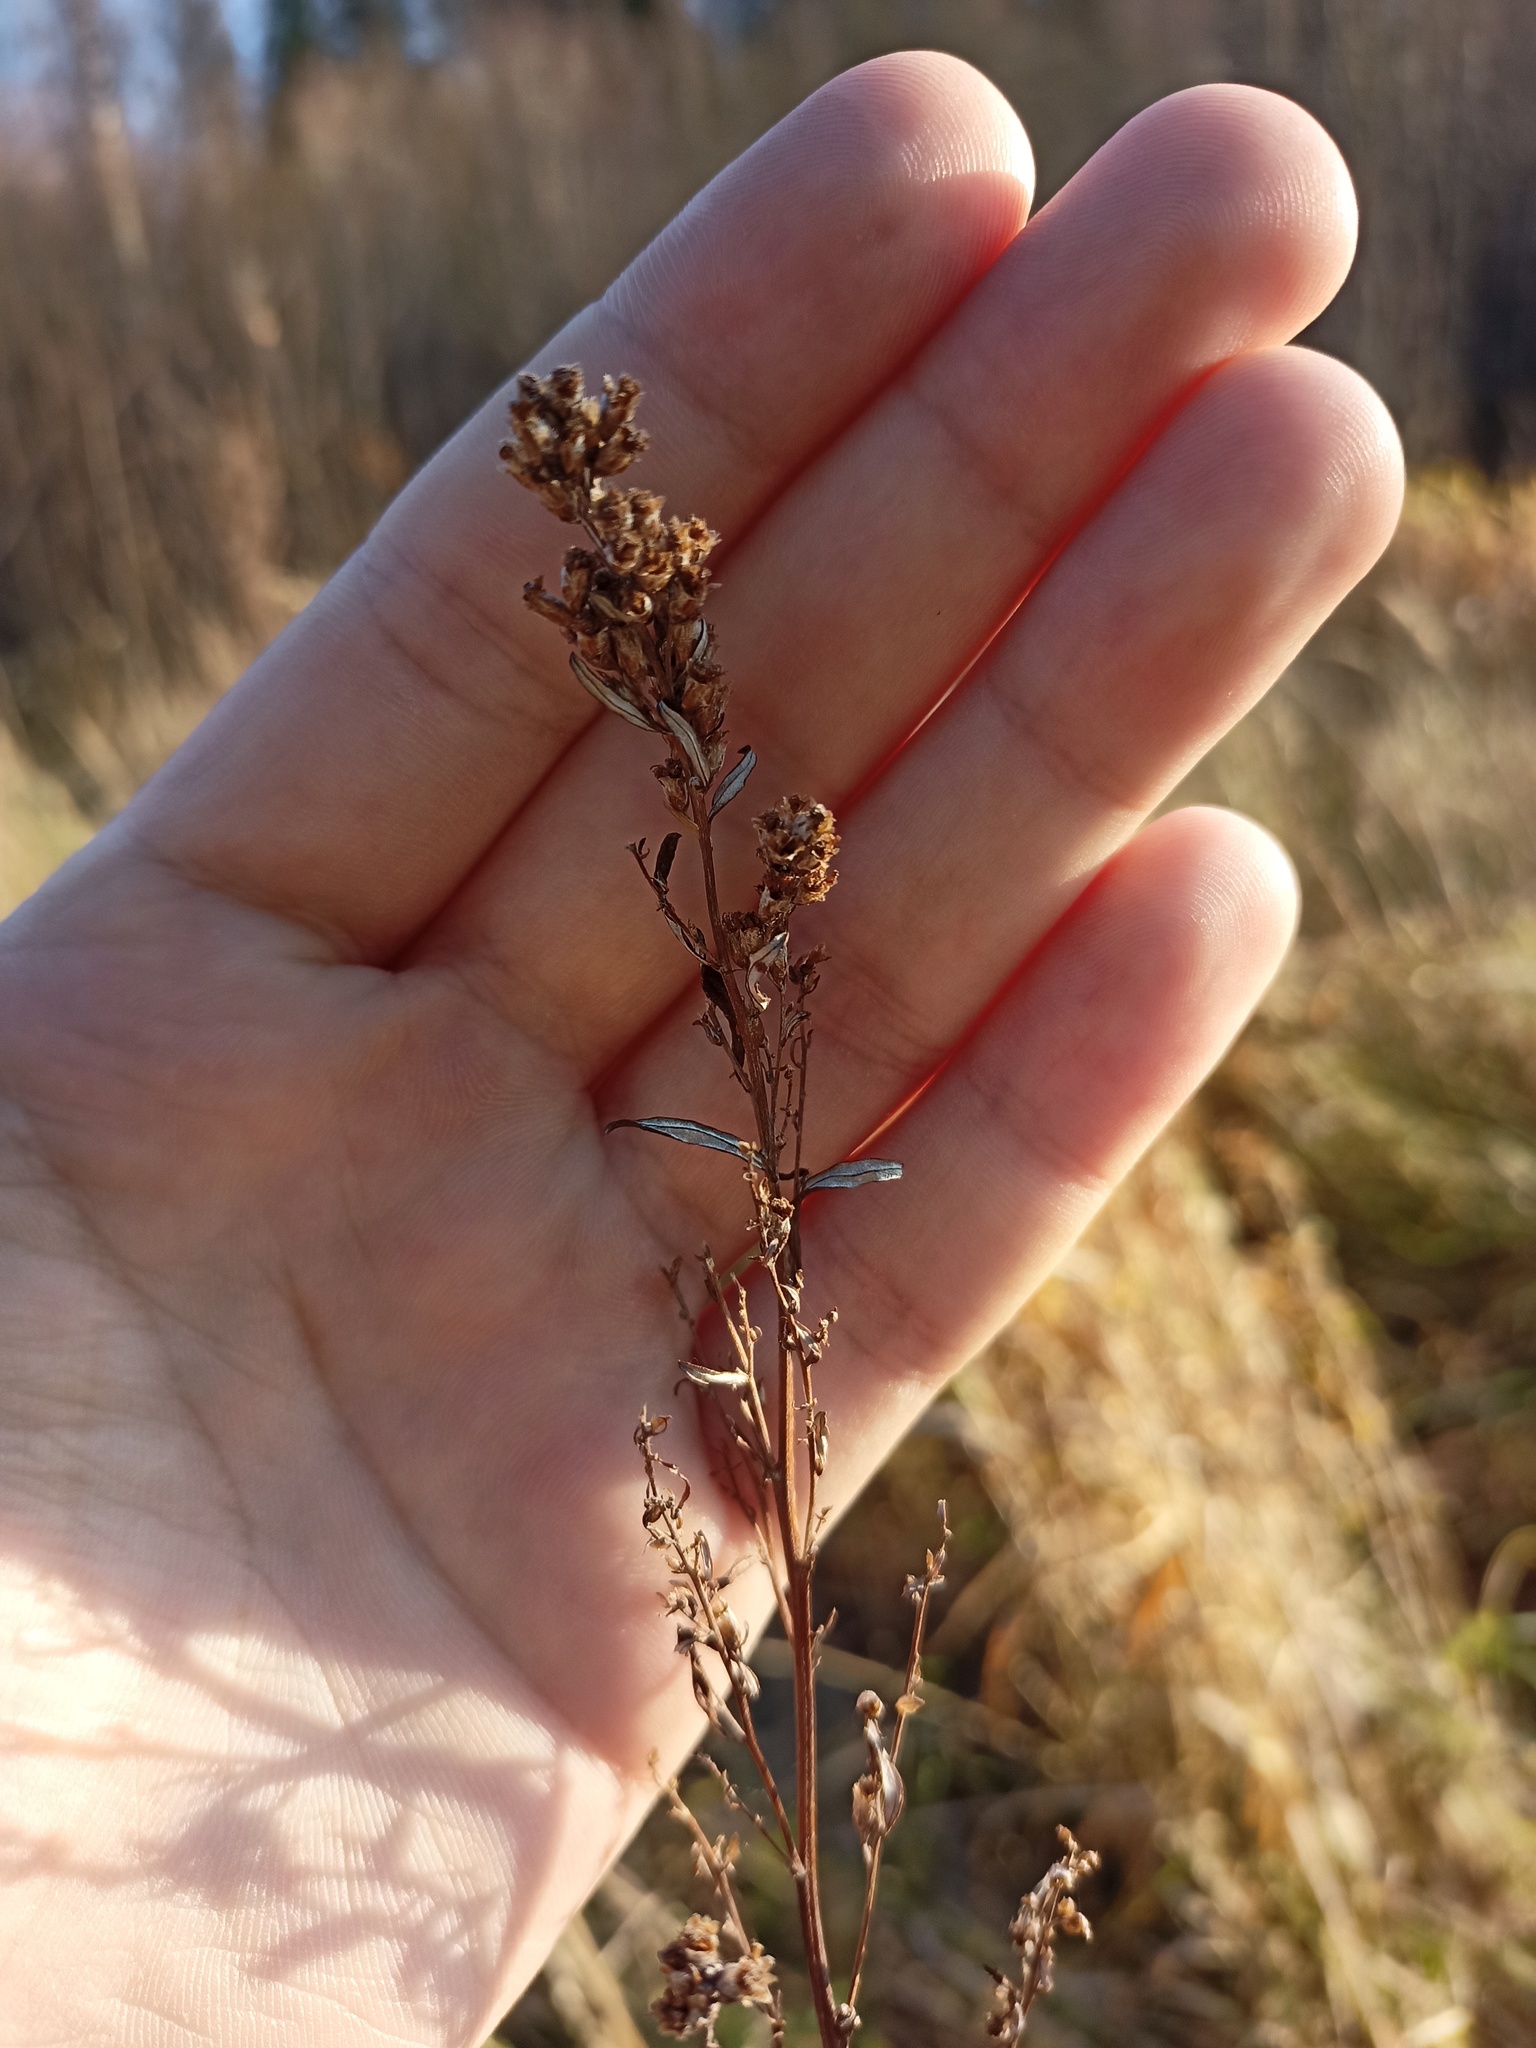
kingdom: Plantae
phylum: Tracheophyta
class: Magnoliopsida
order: Asterales
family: Asteraceae
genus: Artemisia
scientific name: Artemisia vulgaris
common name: Mugwort
